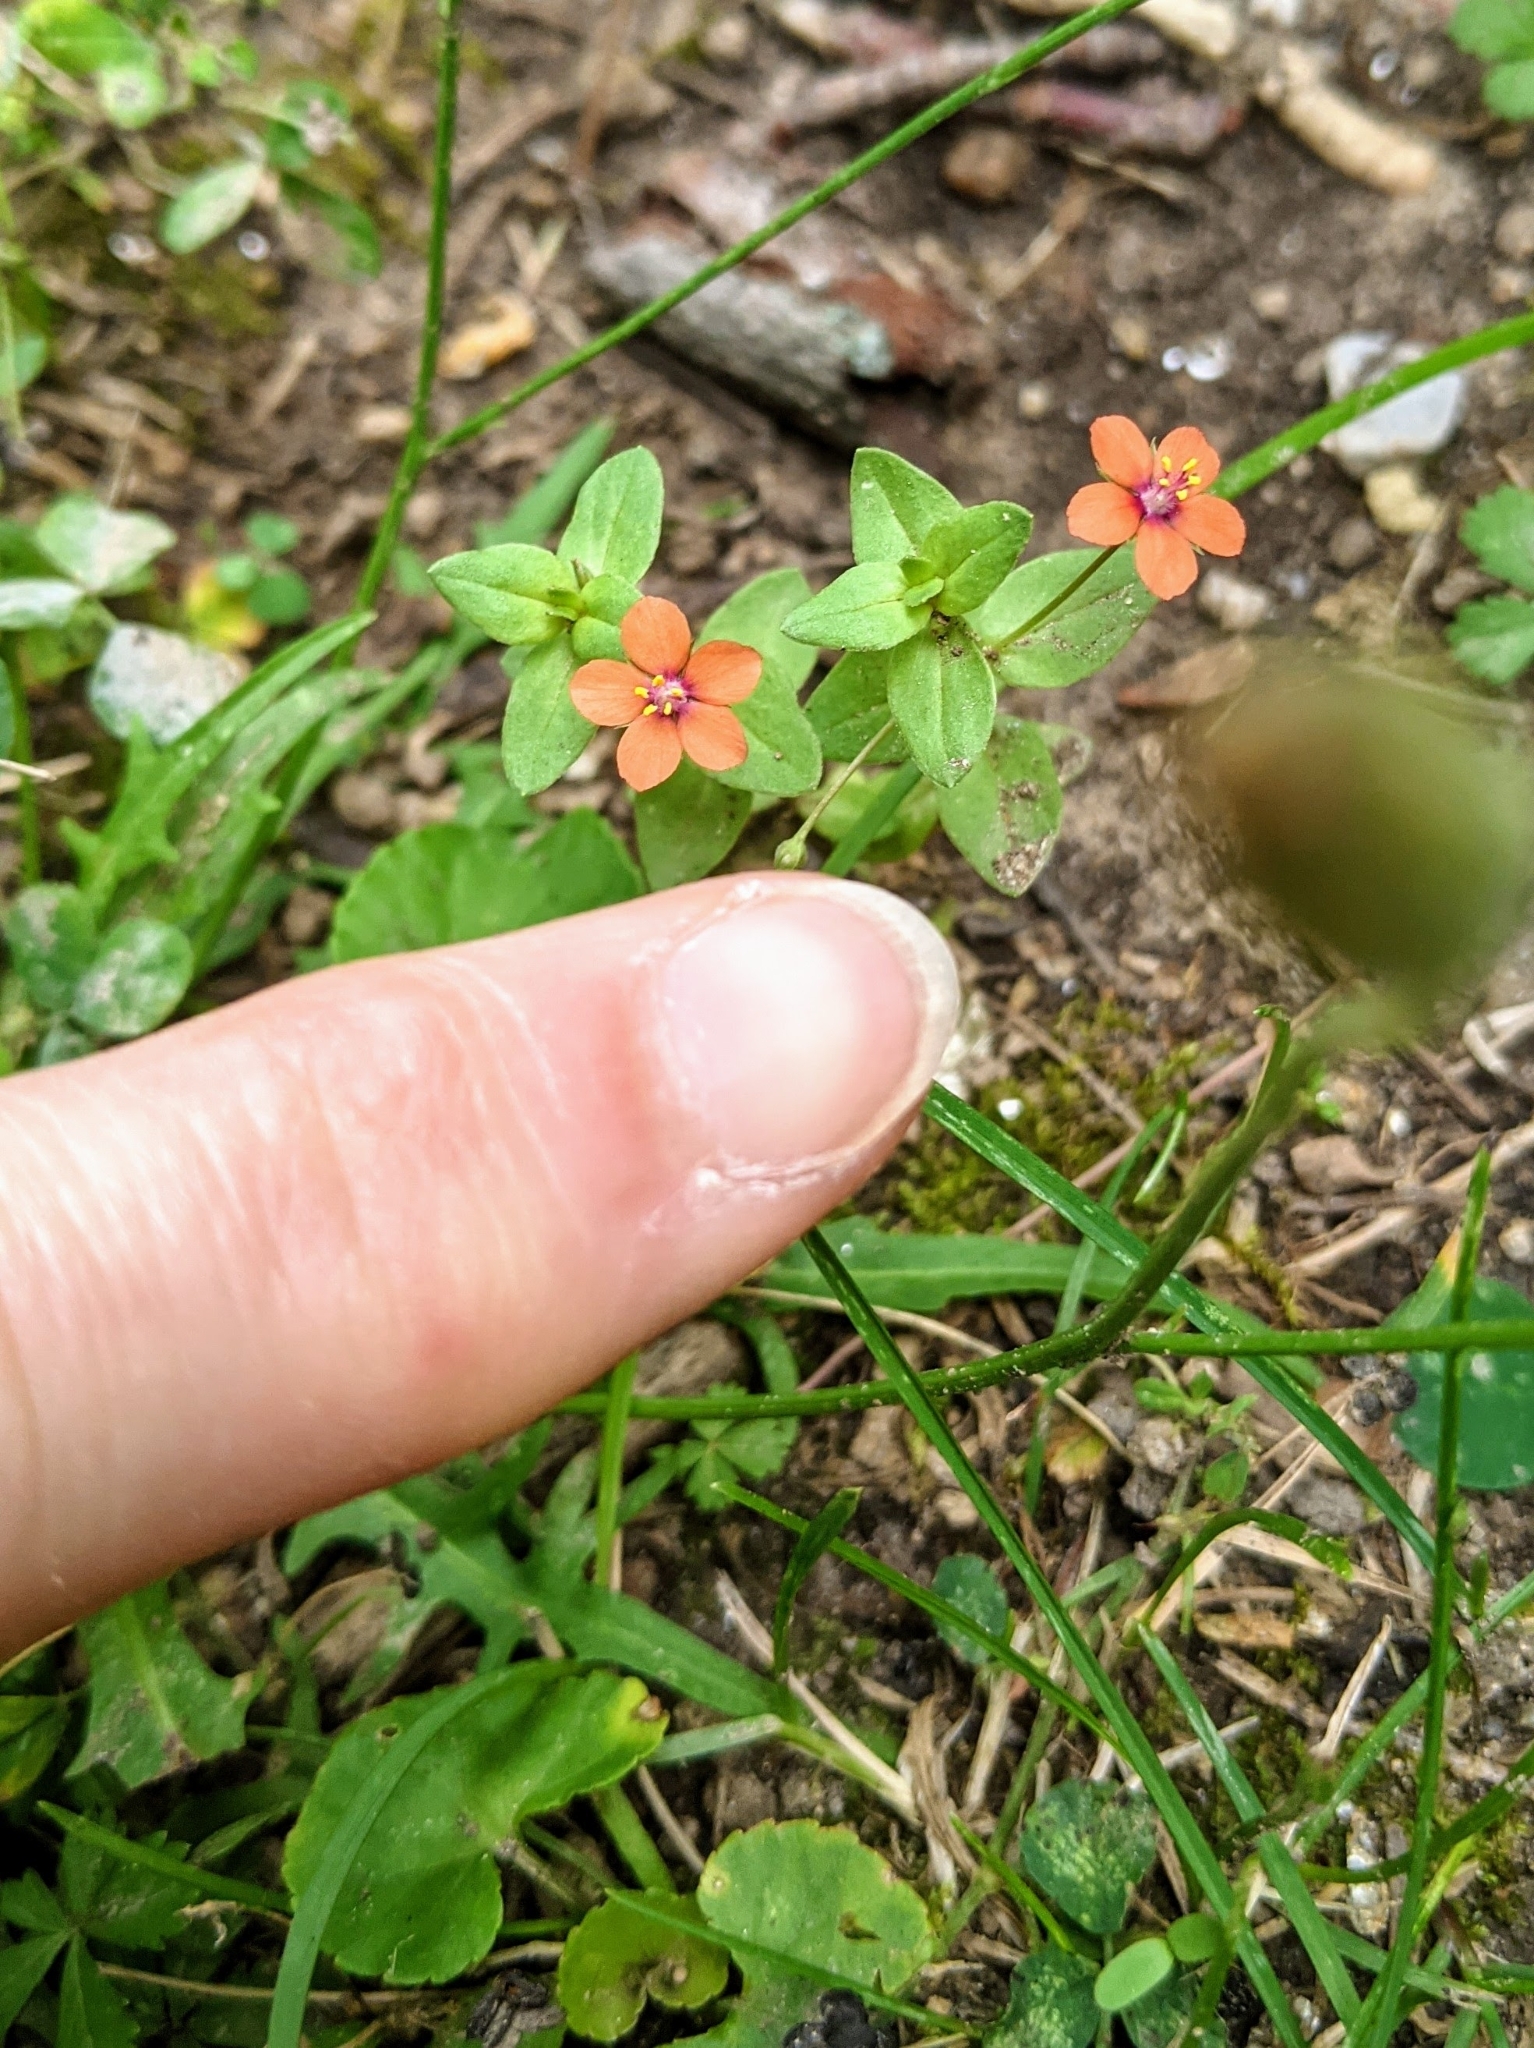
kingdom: Plantae
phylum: Tracheophyta
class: Magnoliopsida
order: Ericales
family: Primulaceae
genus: Lysimachia
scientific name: Lysimachia arvensis
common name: Scarlet pimpernel
